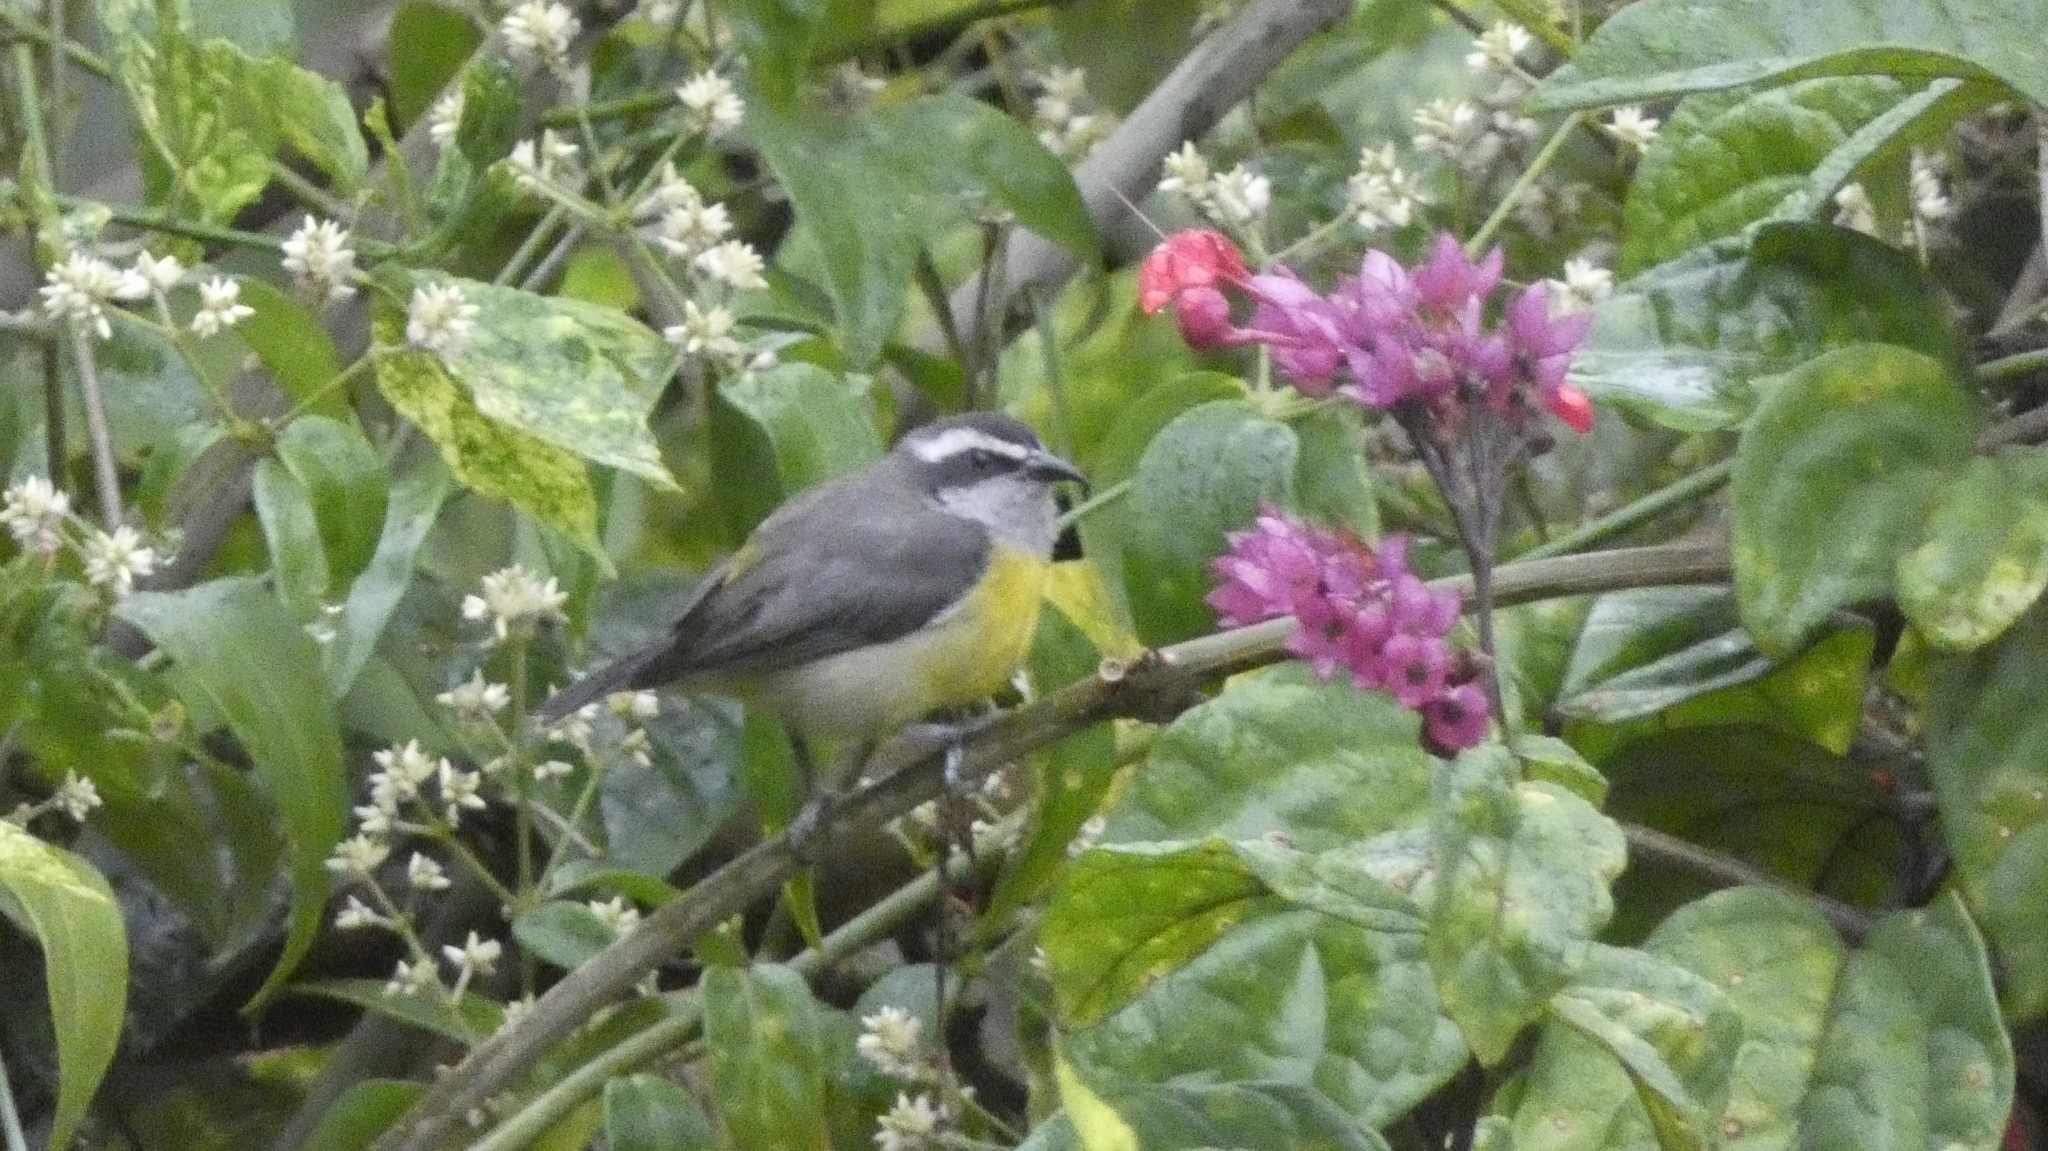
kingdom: Animalia
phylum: Chordata
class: Aves
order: Passeriformes
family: Thraupidae
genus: Coereba
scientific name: Coereba flaveola
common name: Bananaquit
